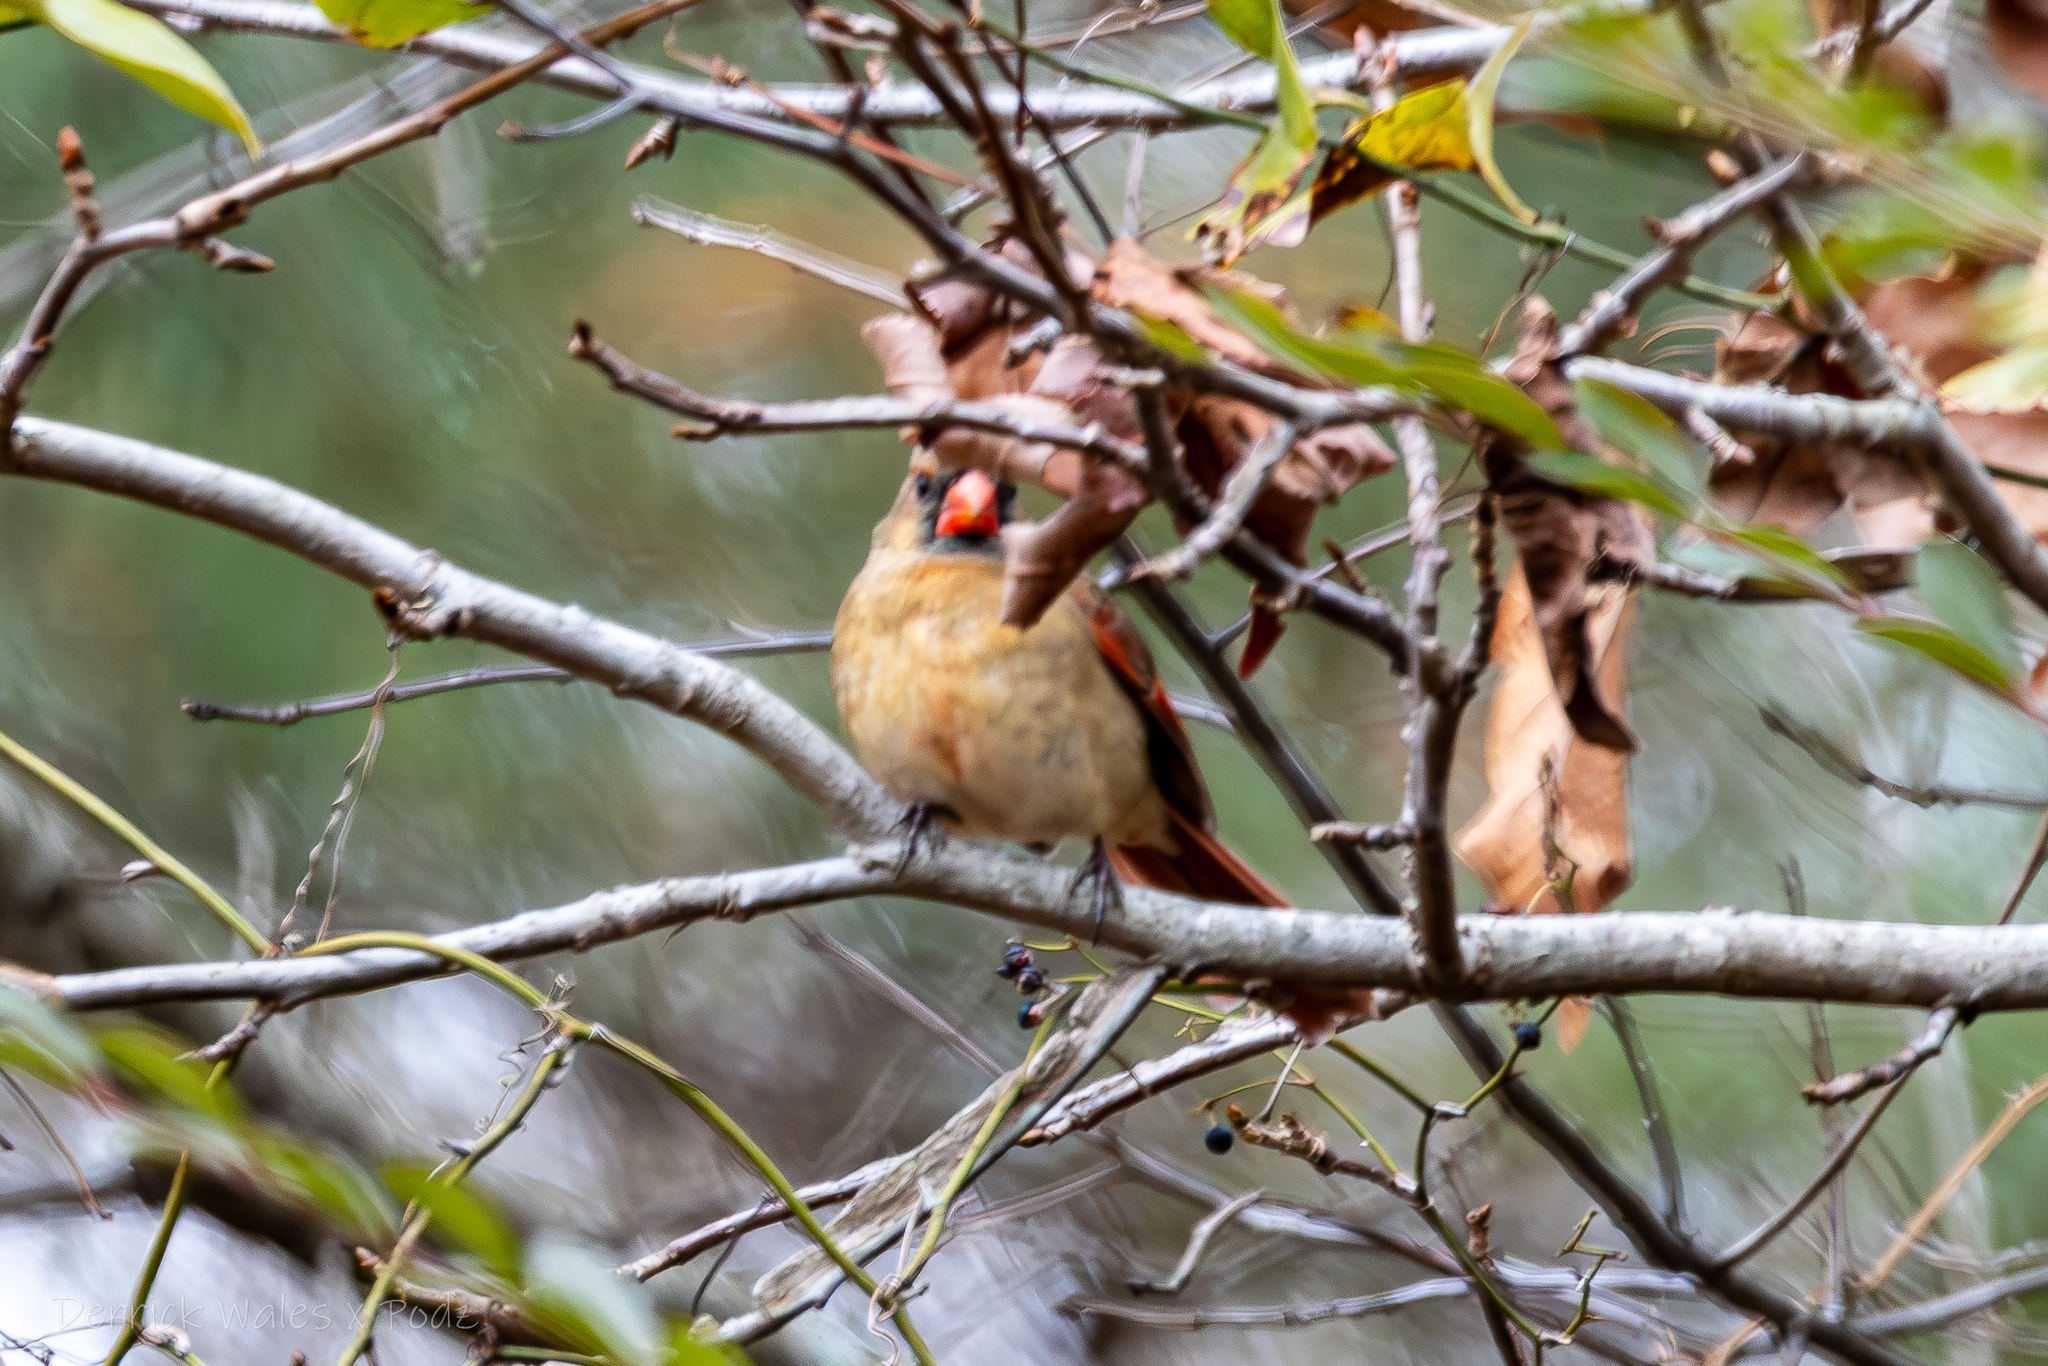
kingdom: Animalia
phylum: Chordata
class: Aves
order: Passeriformes
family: Cardinalidae
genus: Cardinalis
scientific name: Cardinalis cardinalis
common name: Northern cardinal
